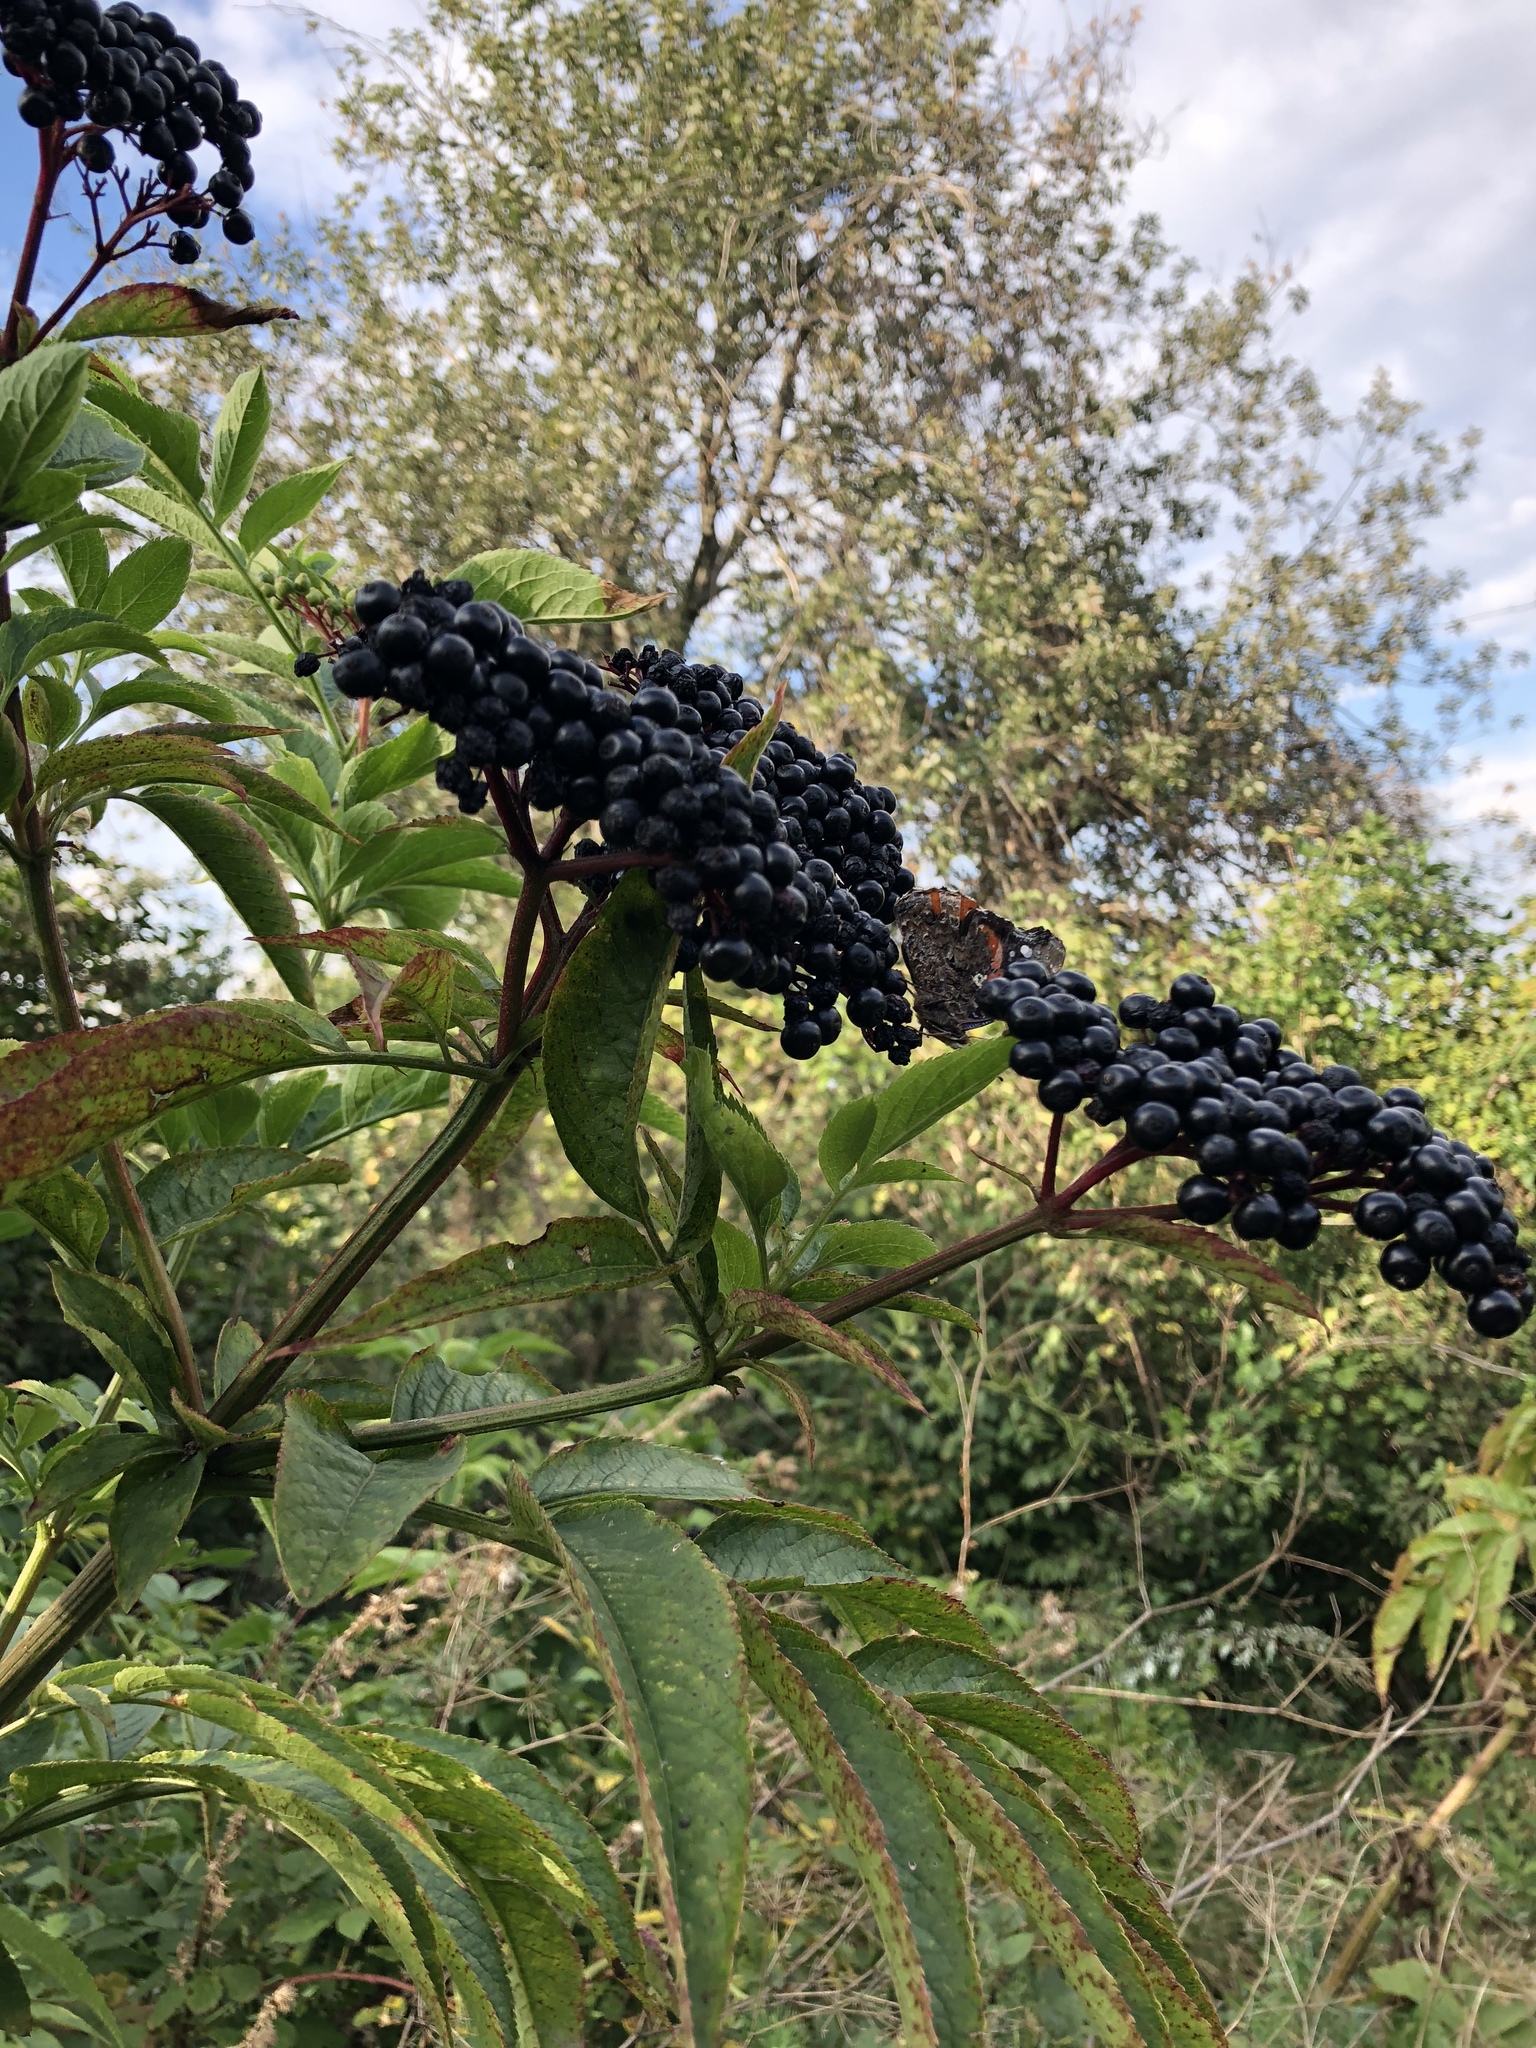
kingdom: Plantae
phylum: Tracheophyta
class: Magnoliopsida
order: Dipsacales
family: Viburnaceae
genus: Sambucus
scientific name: Sambucus ebulus
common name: Dwarf elder
